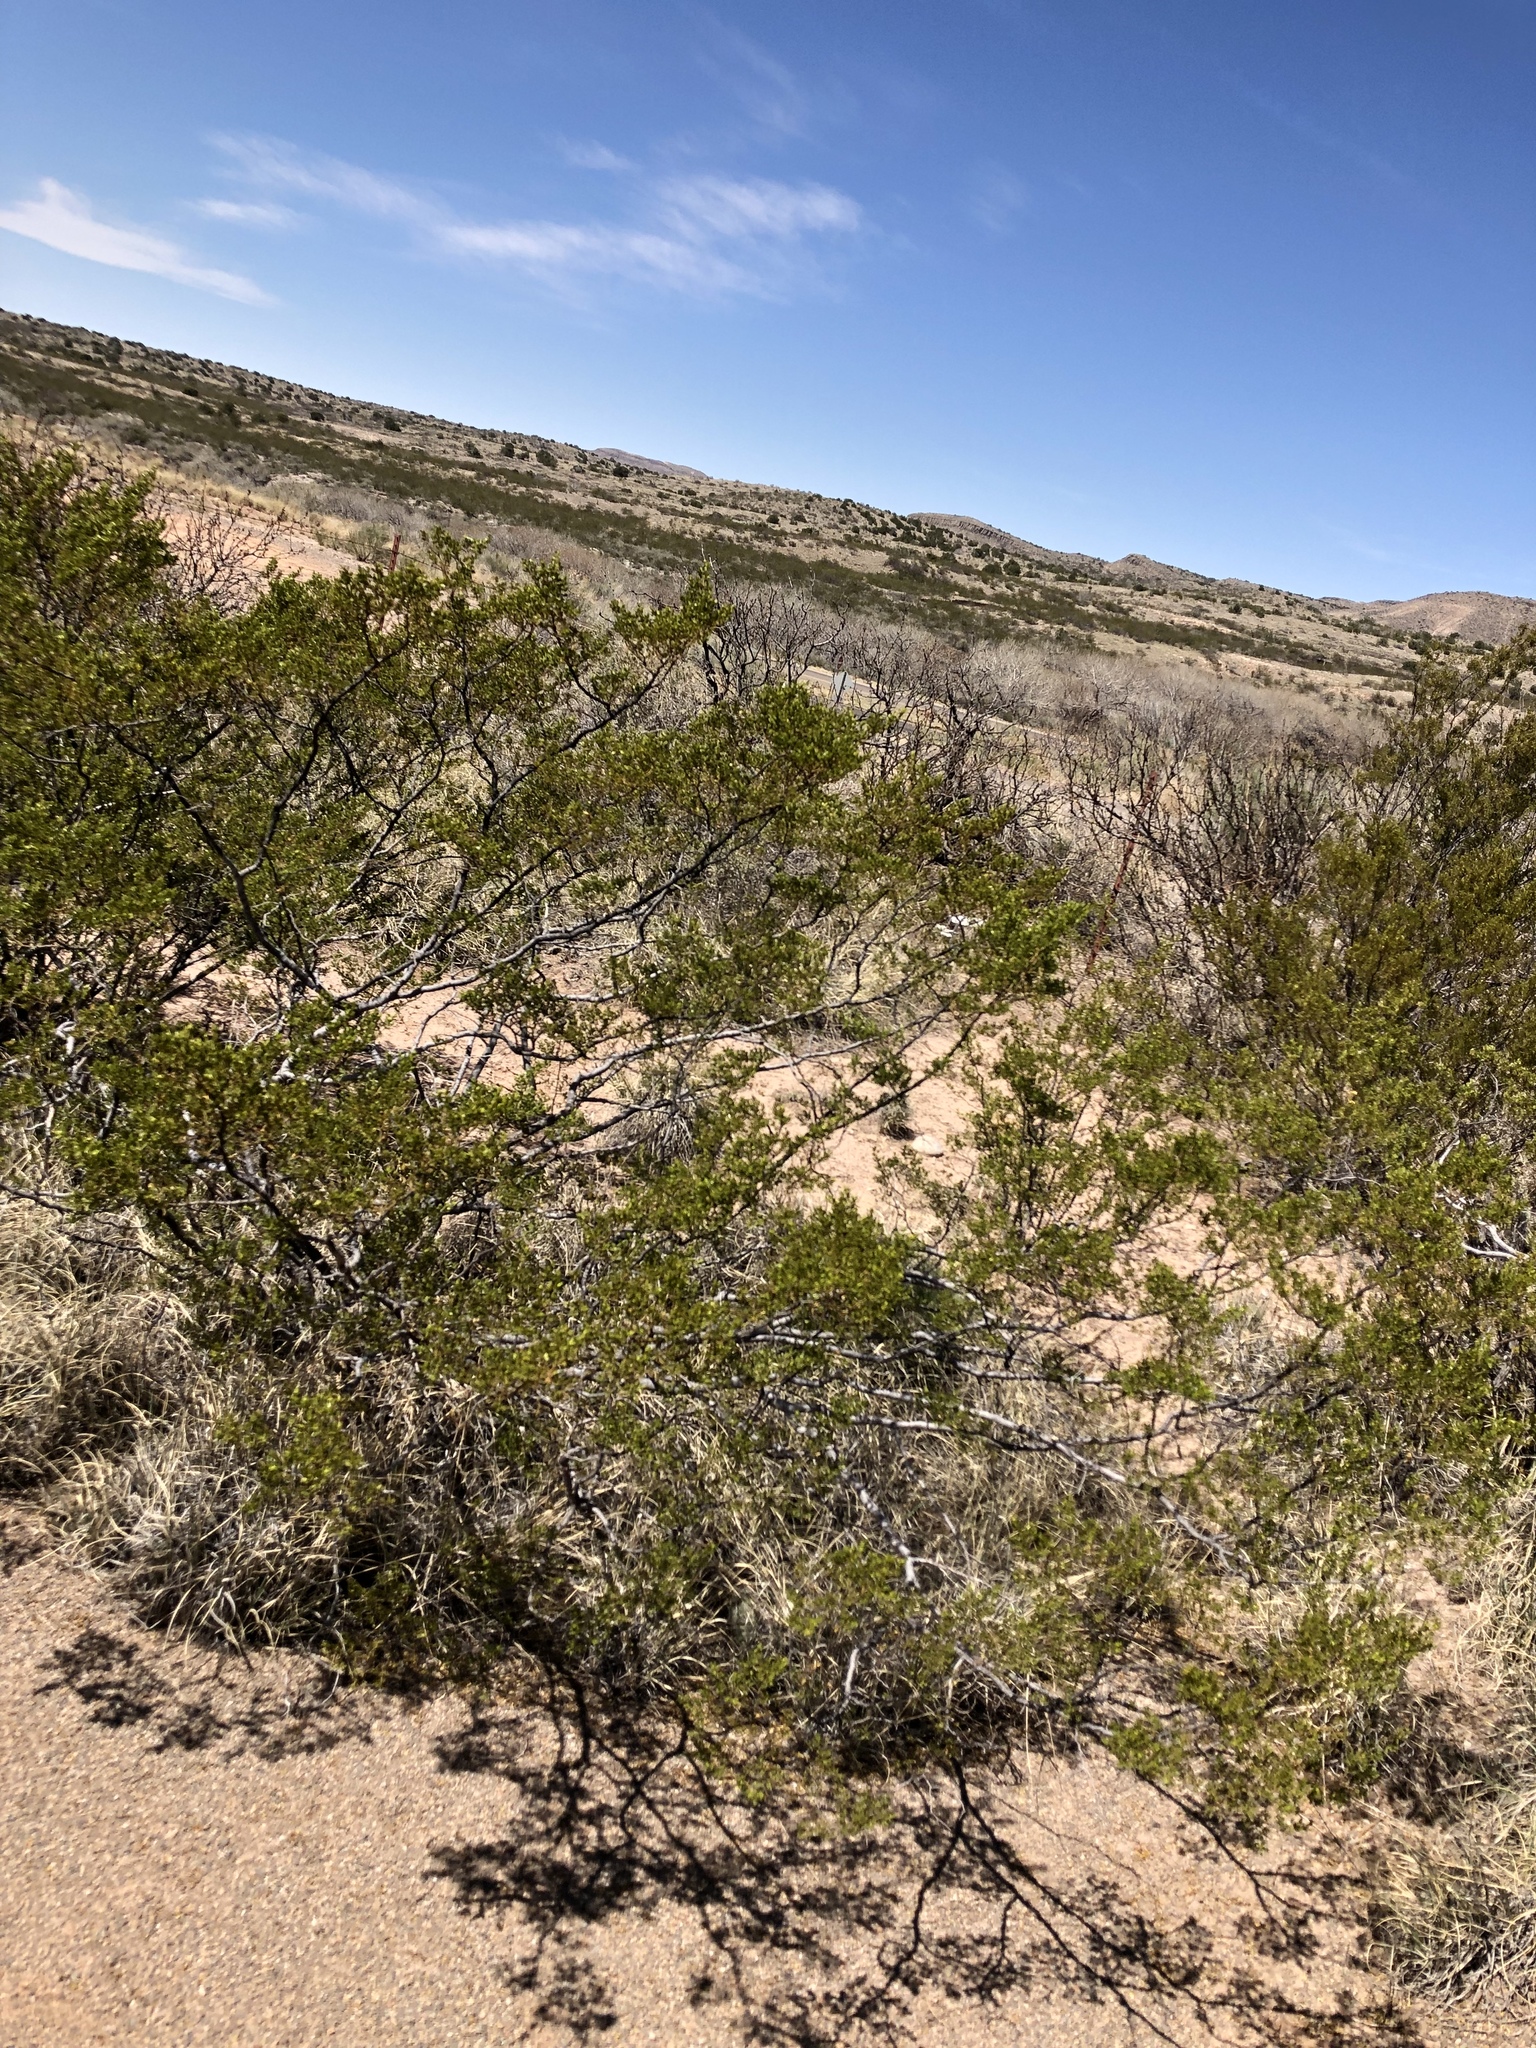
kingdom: Plantae
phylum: Tracheophyta
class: Magnoliopsida
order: Zygophyllales
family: Zygophyllaceae
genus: Larrea
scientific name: Larrea tridentata
